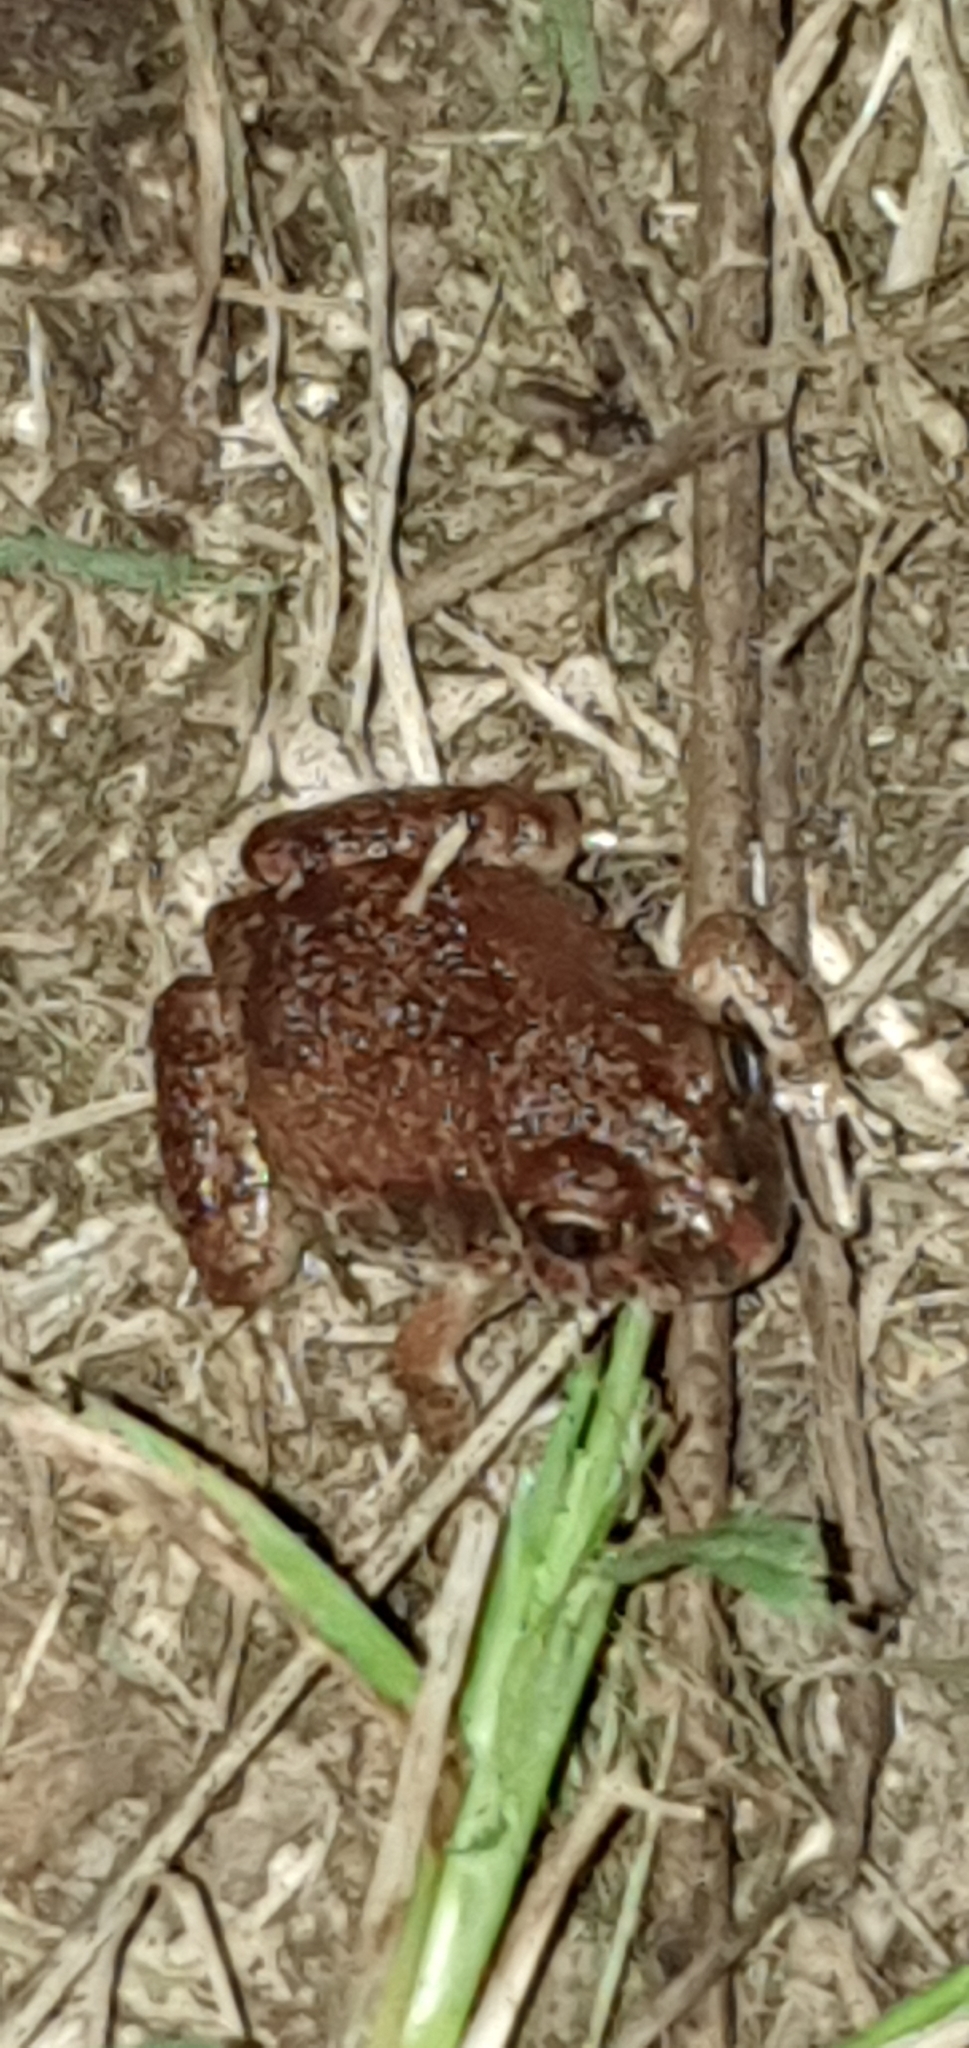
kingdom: Animalia
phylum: Chordata
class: Amphibia
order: Anura
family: Limnodynastidae
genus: Platyplectrum
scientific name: Platyplectrum ornatum
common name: Ornate burrowing frog
